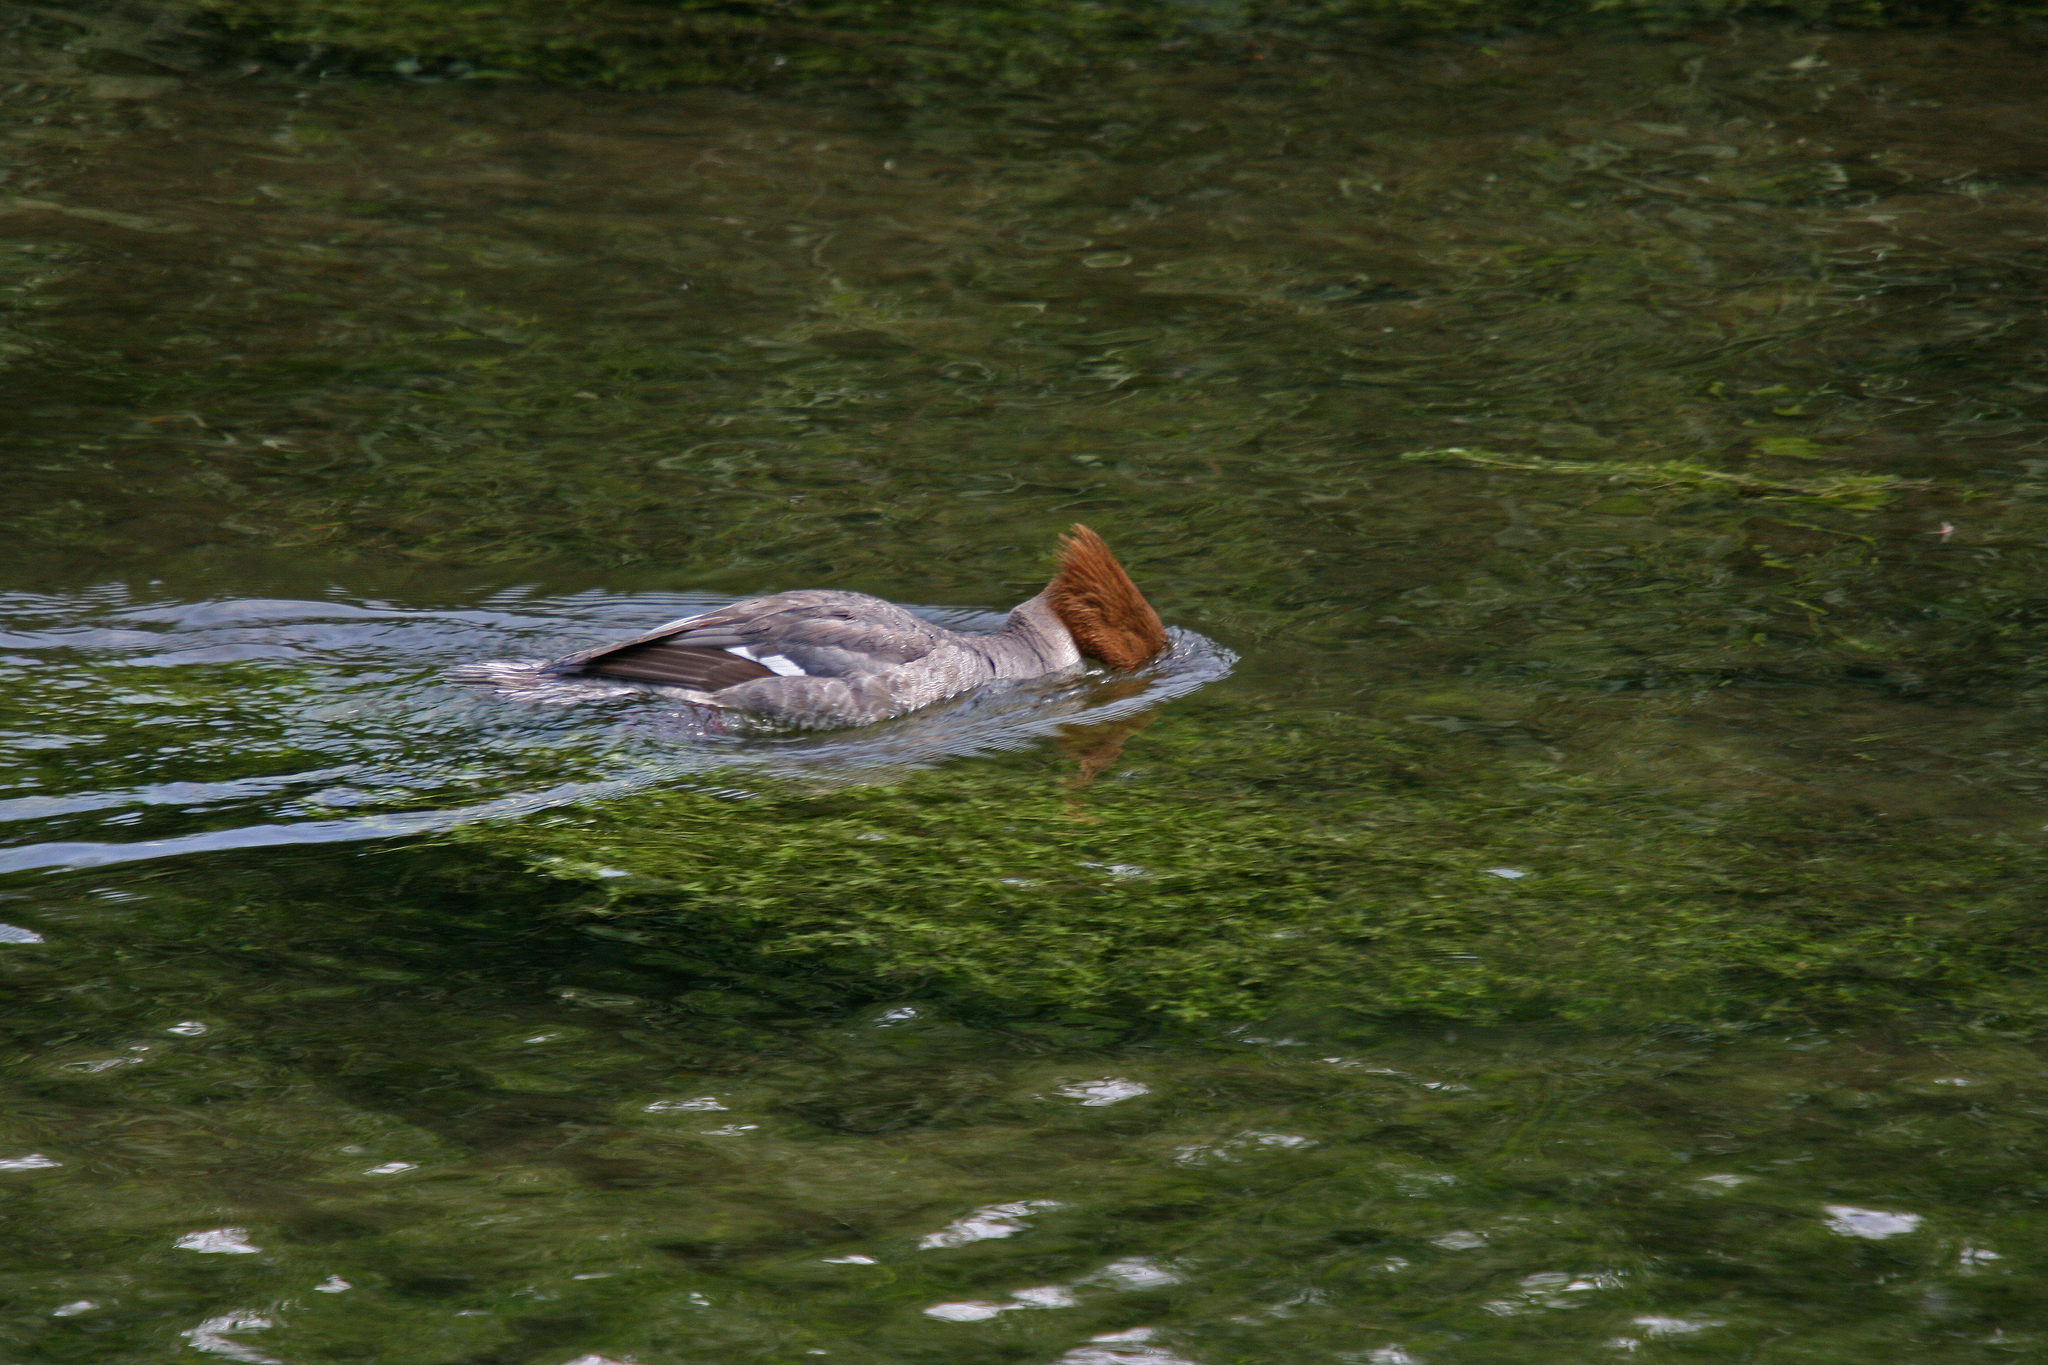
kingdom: Animalia
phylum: Chordata
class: Aves
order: Anseriformes
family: Anatidae
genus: Mergus
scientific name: Mergus merganser
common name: Common merganser
